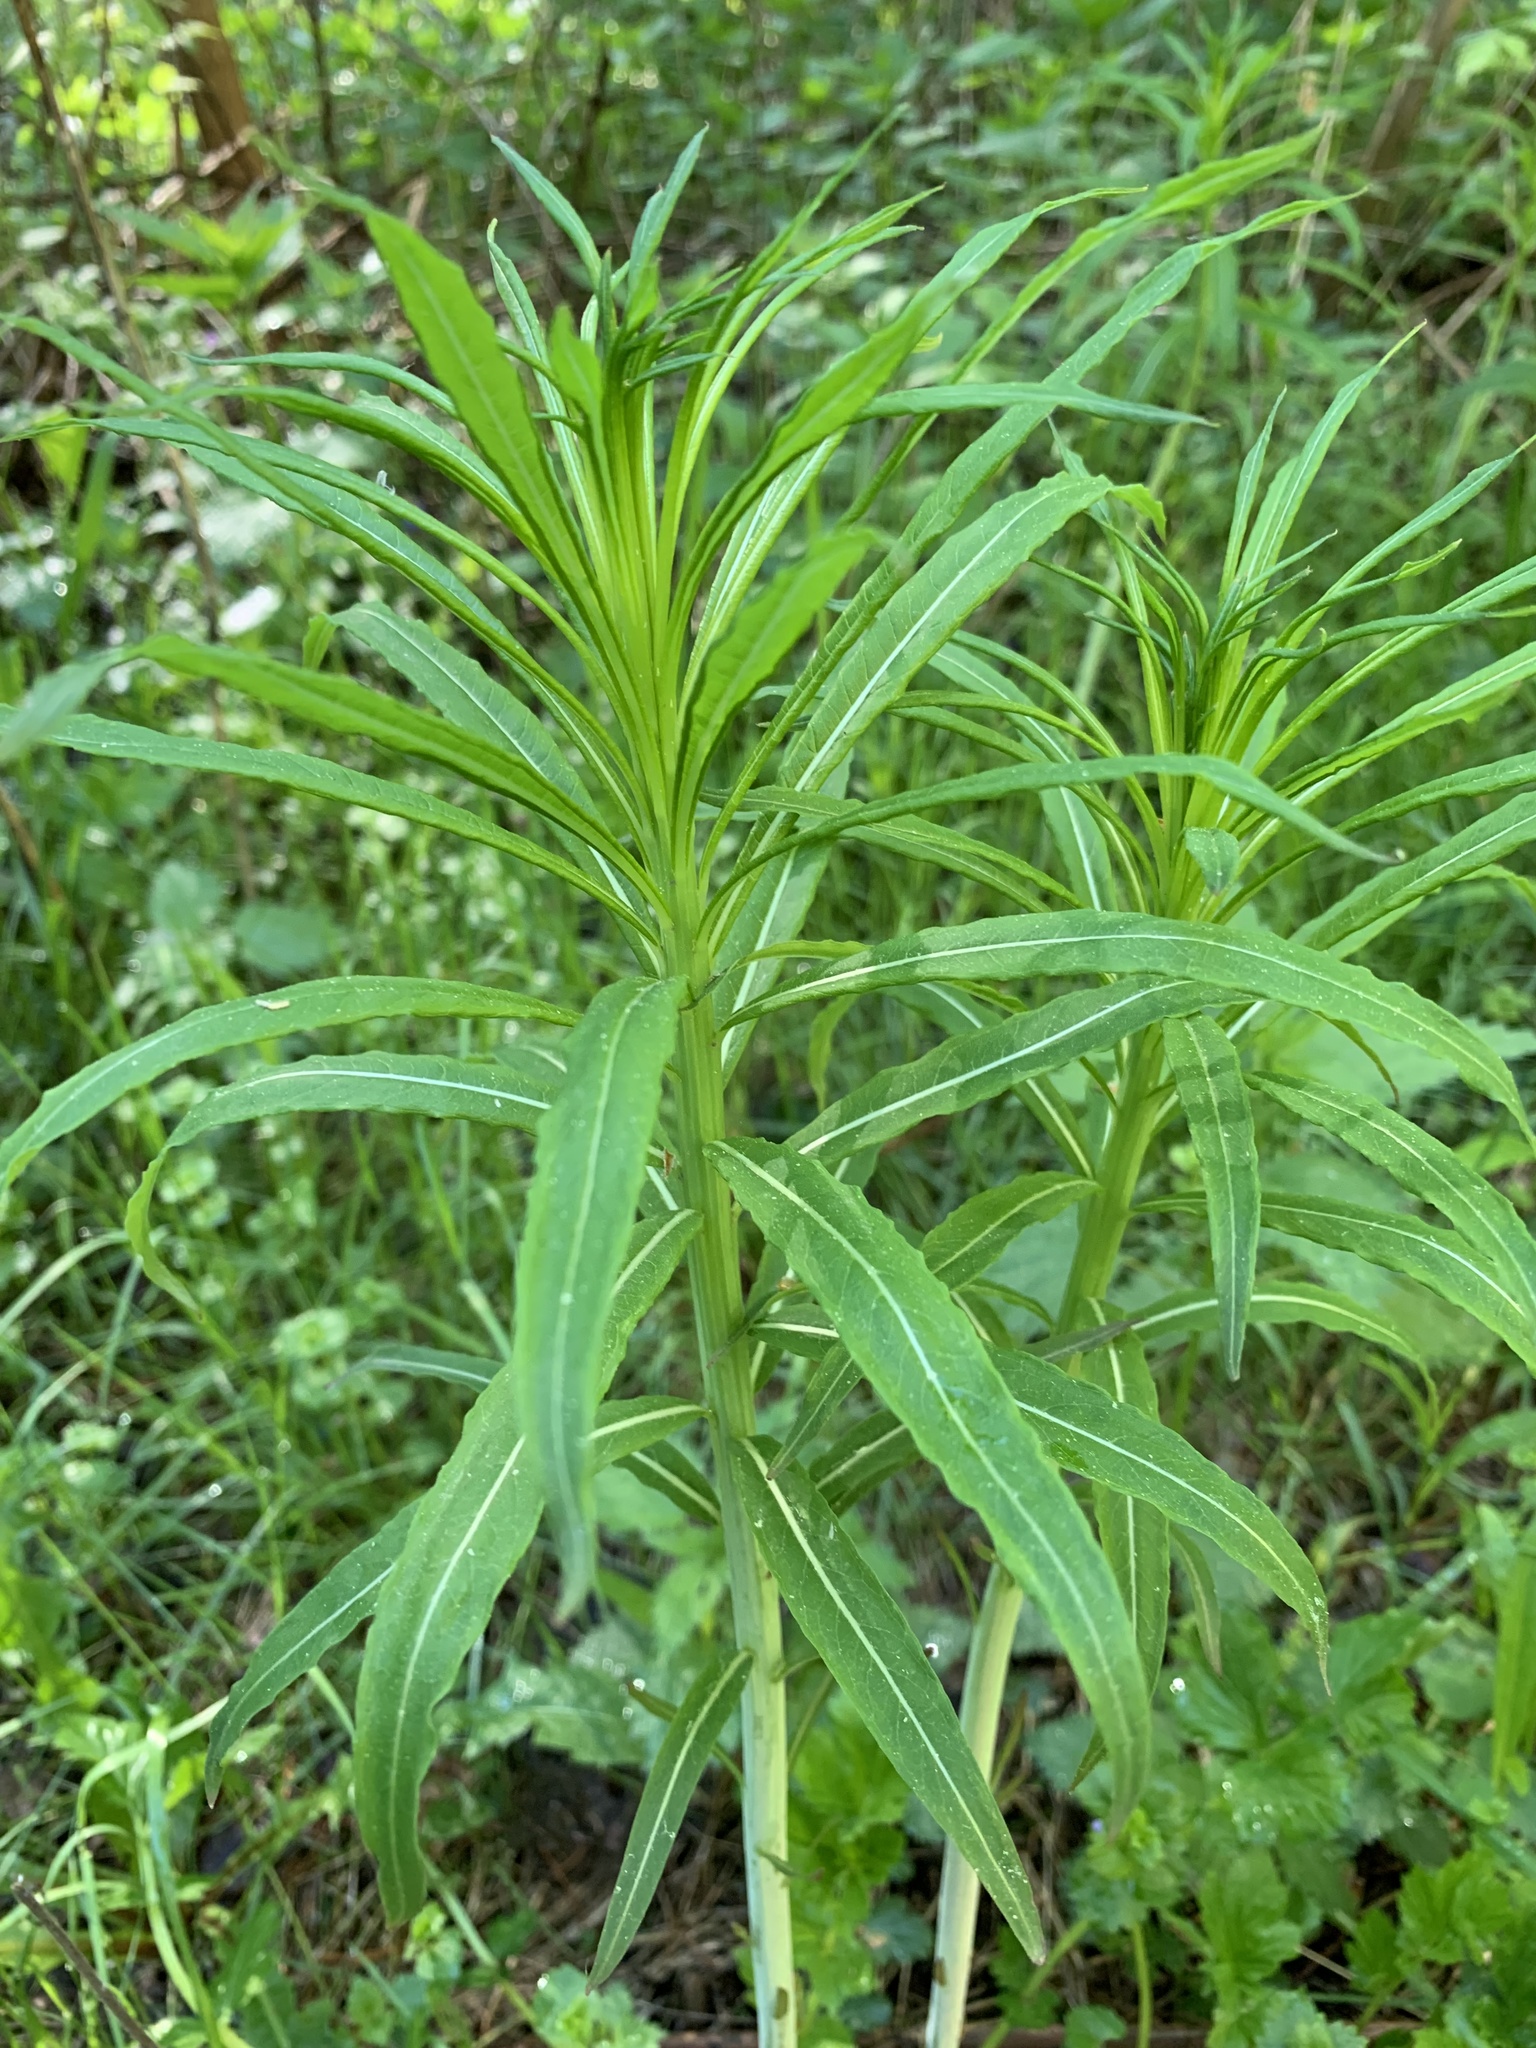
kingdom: Plantae
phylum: Tracheophyta
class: Magnoliopsida
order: Myrtales
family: Onagraceae
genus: Chamaenerion
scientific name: Chamaenerion angustifolium
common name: Fireweed
